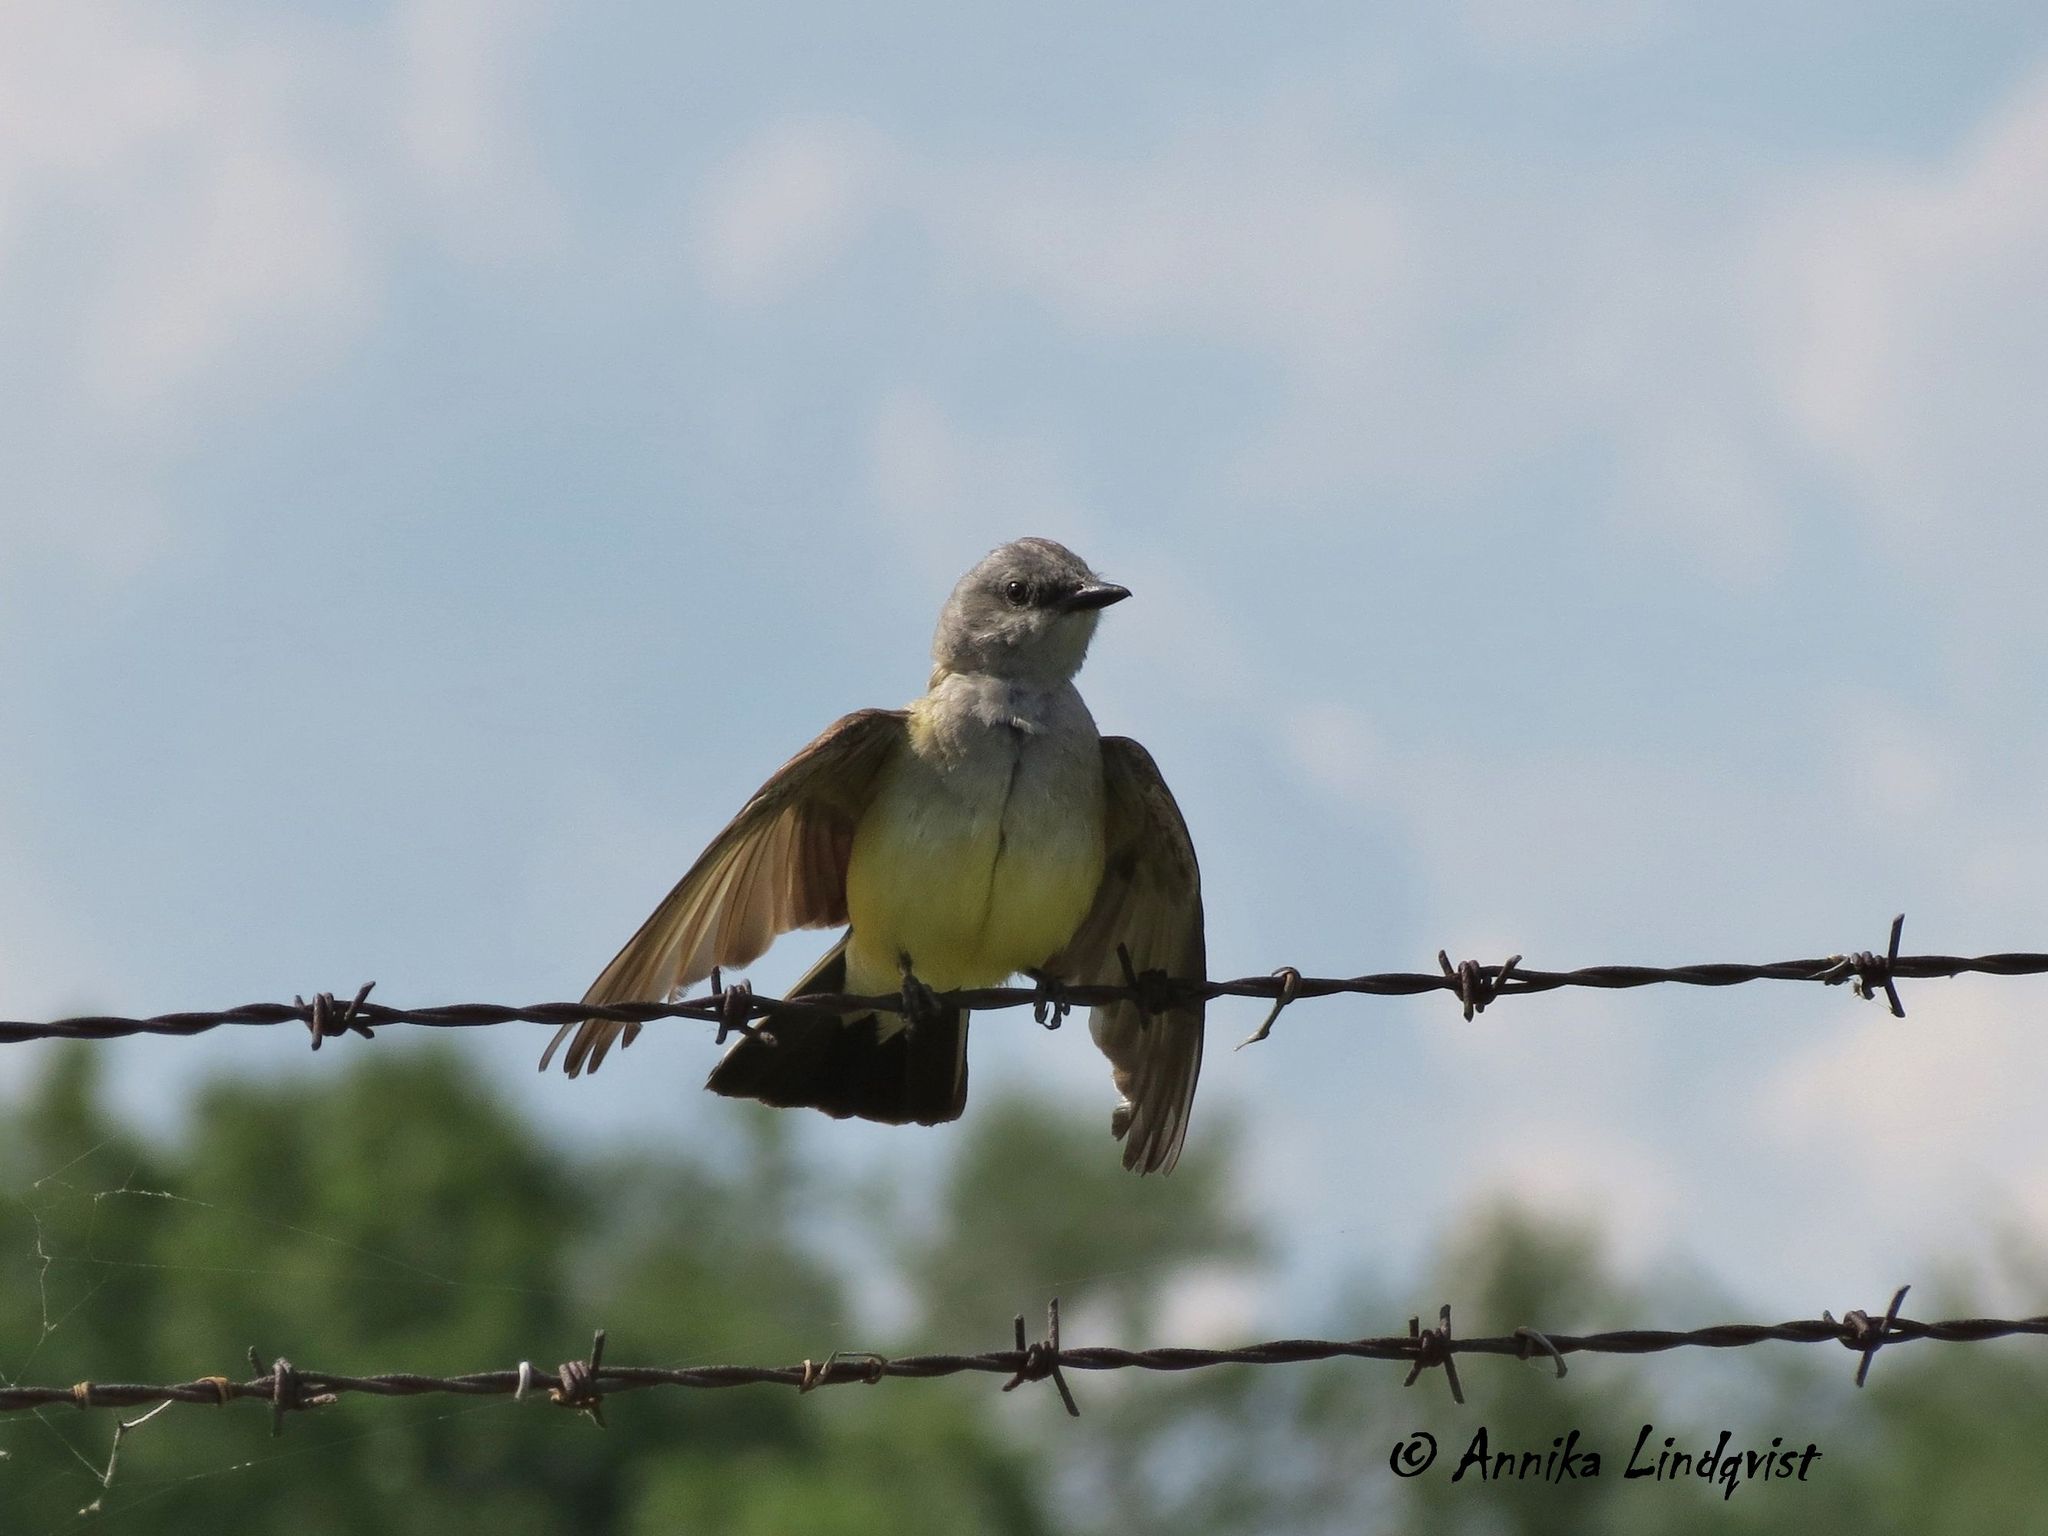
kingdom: Animalia
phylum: Chordata
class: Aves
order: Passeriformes
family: Tyrannidae
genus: Tyrannus
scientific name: Tyrannus verticalis
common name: Western kingbird
